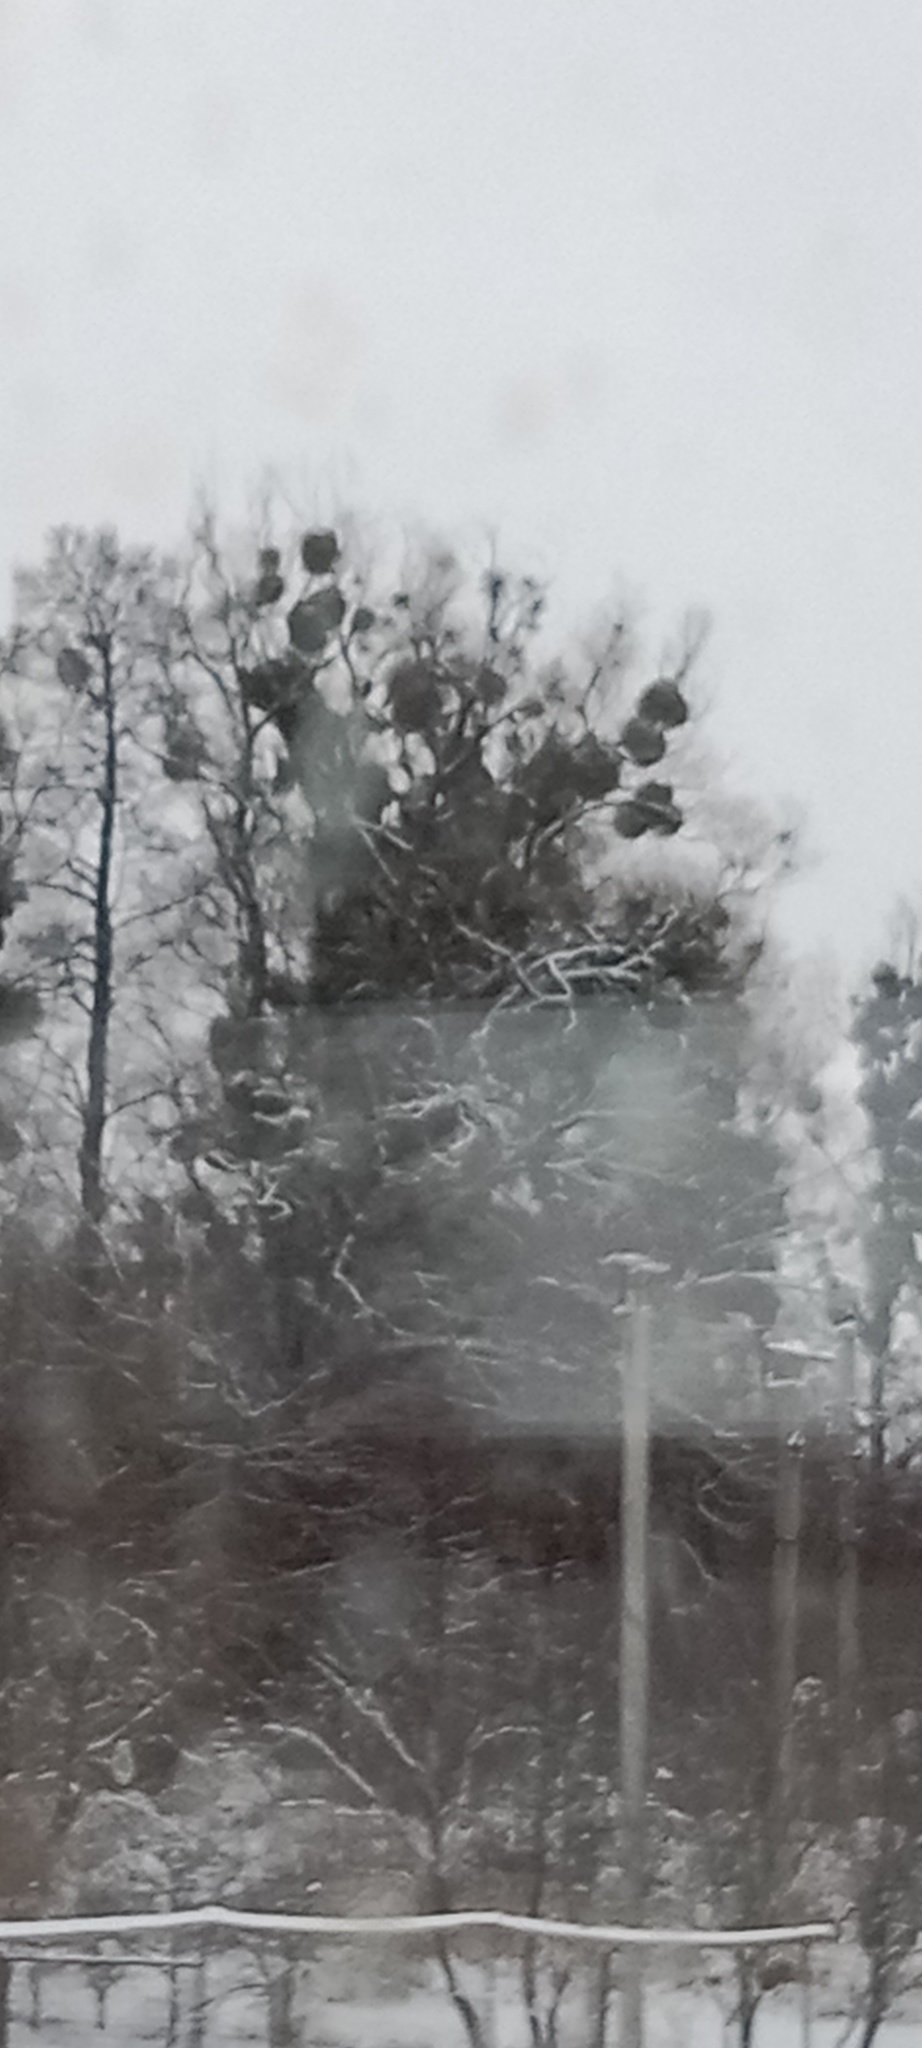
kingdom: Plantae
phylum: Tracheophyta
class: Magnoliopsida
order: Santalales
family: Viscaceae
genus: Viscum
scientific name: Viscum album
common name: Mistletoe
